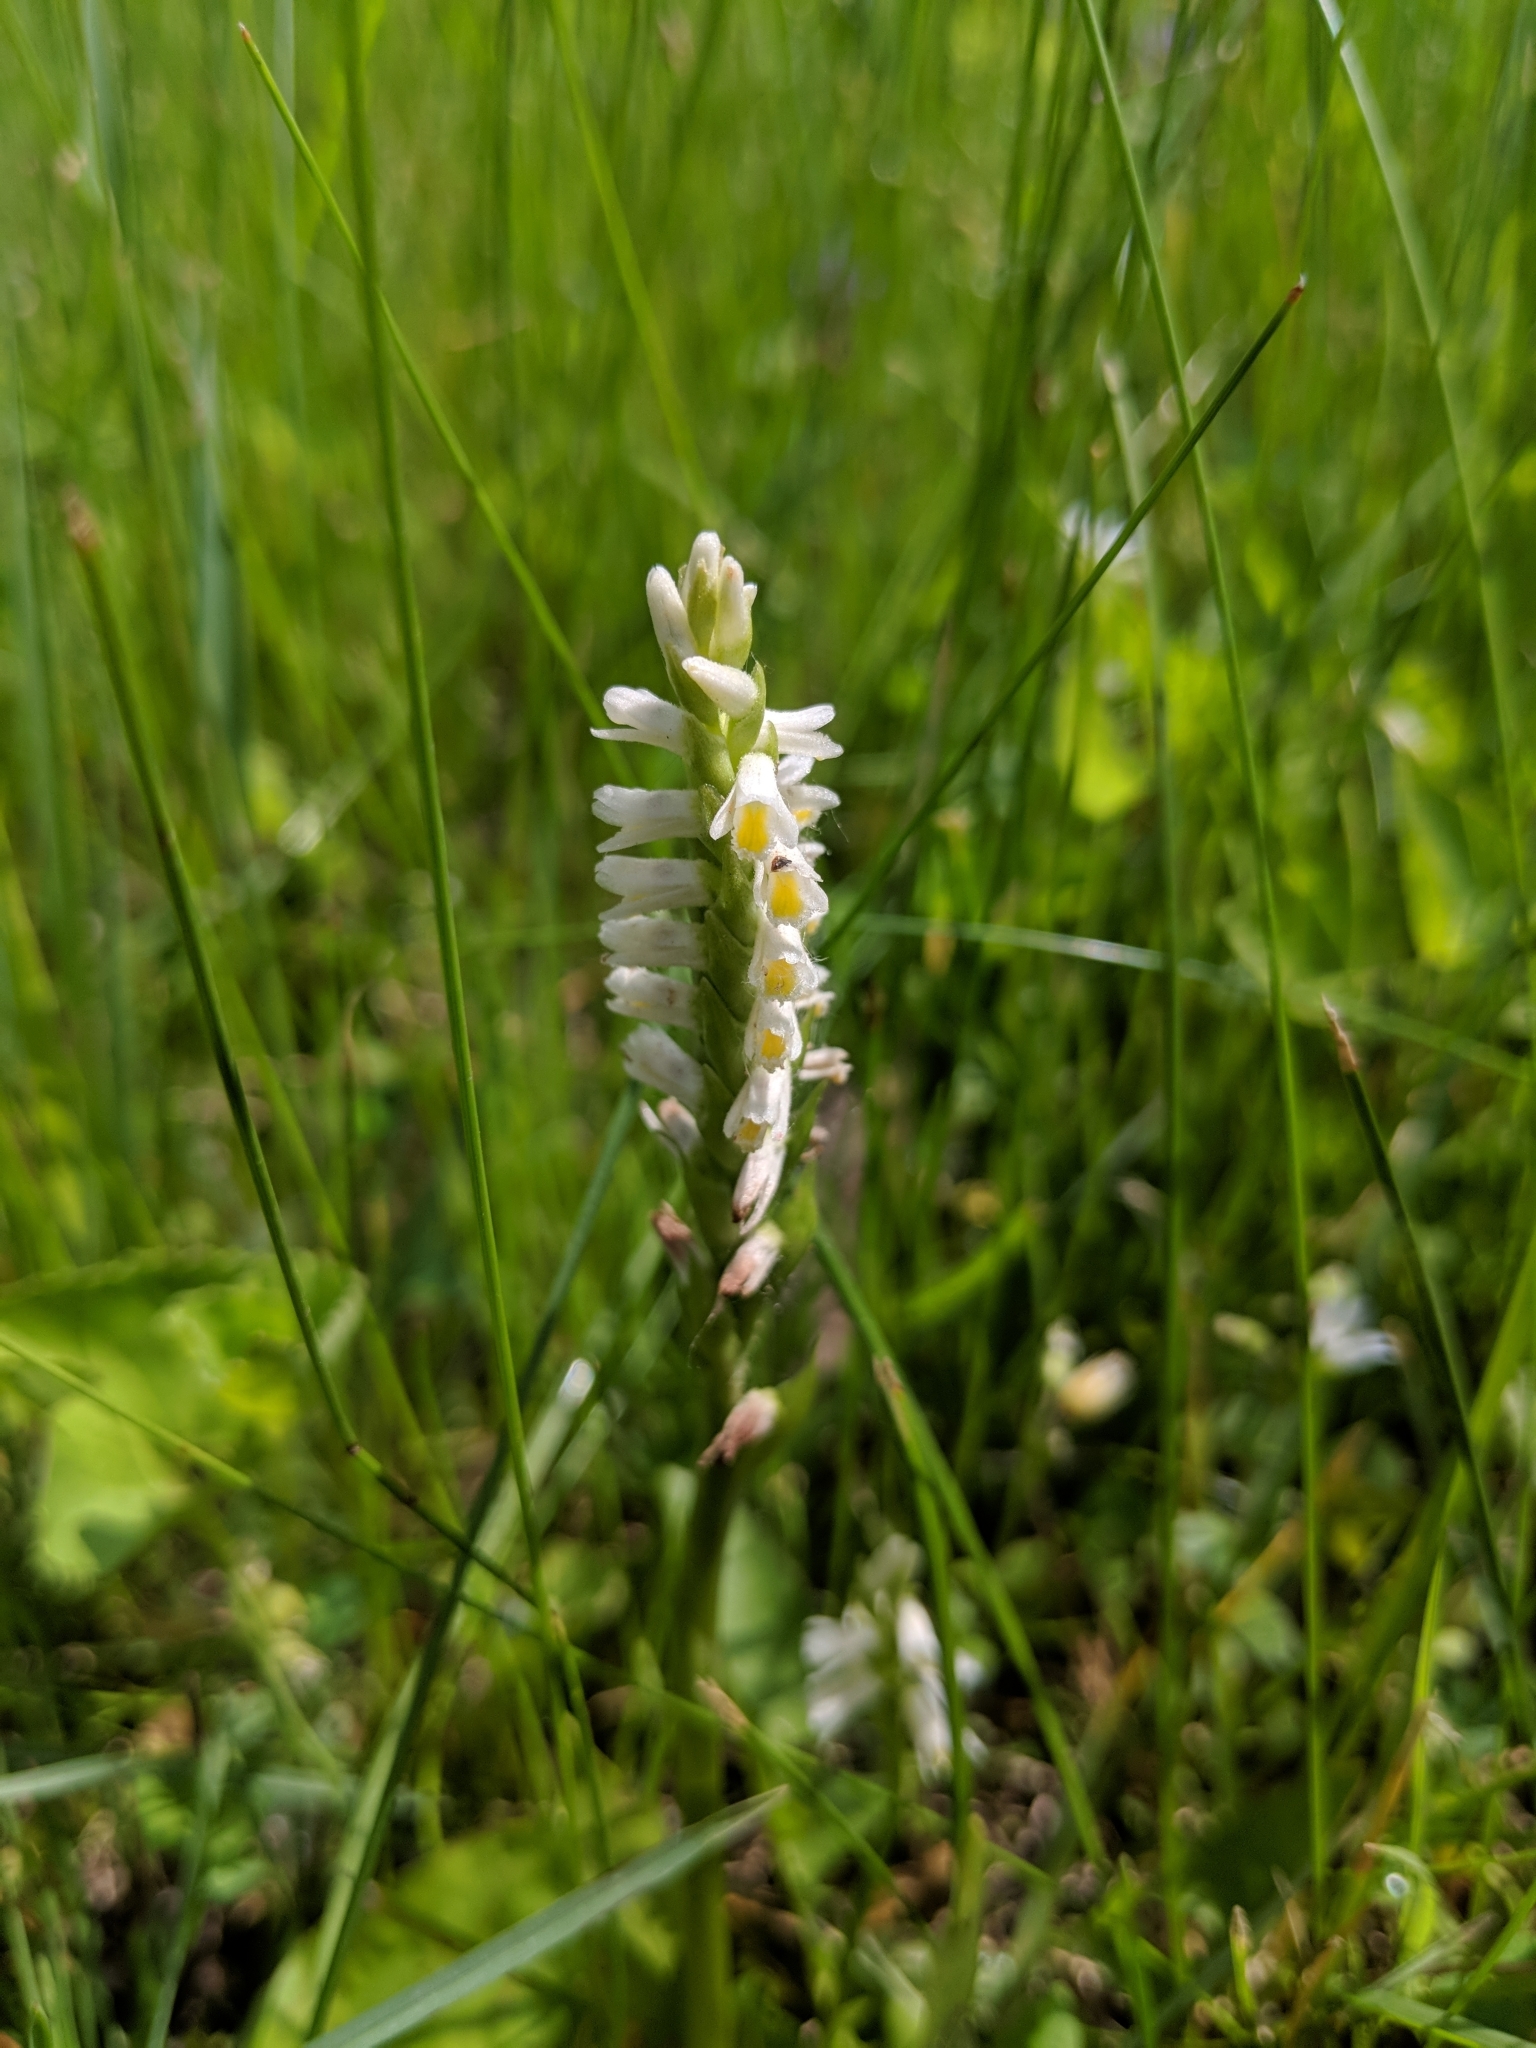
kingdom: Plantae
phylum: Tracheophyta
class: Liliopsida
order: Asparagales
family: Orchidaceae
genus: Spiranthes
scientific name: Spiranthes lucida
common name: Broad-leaved ladies'-tresses
